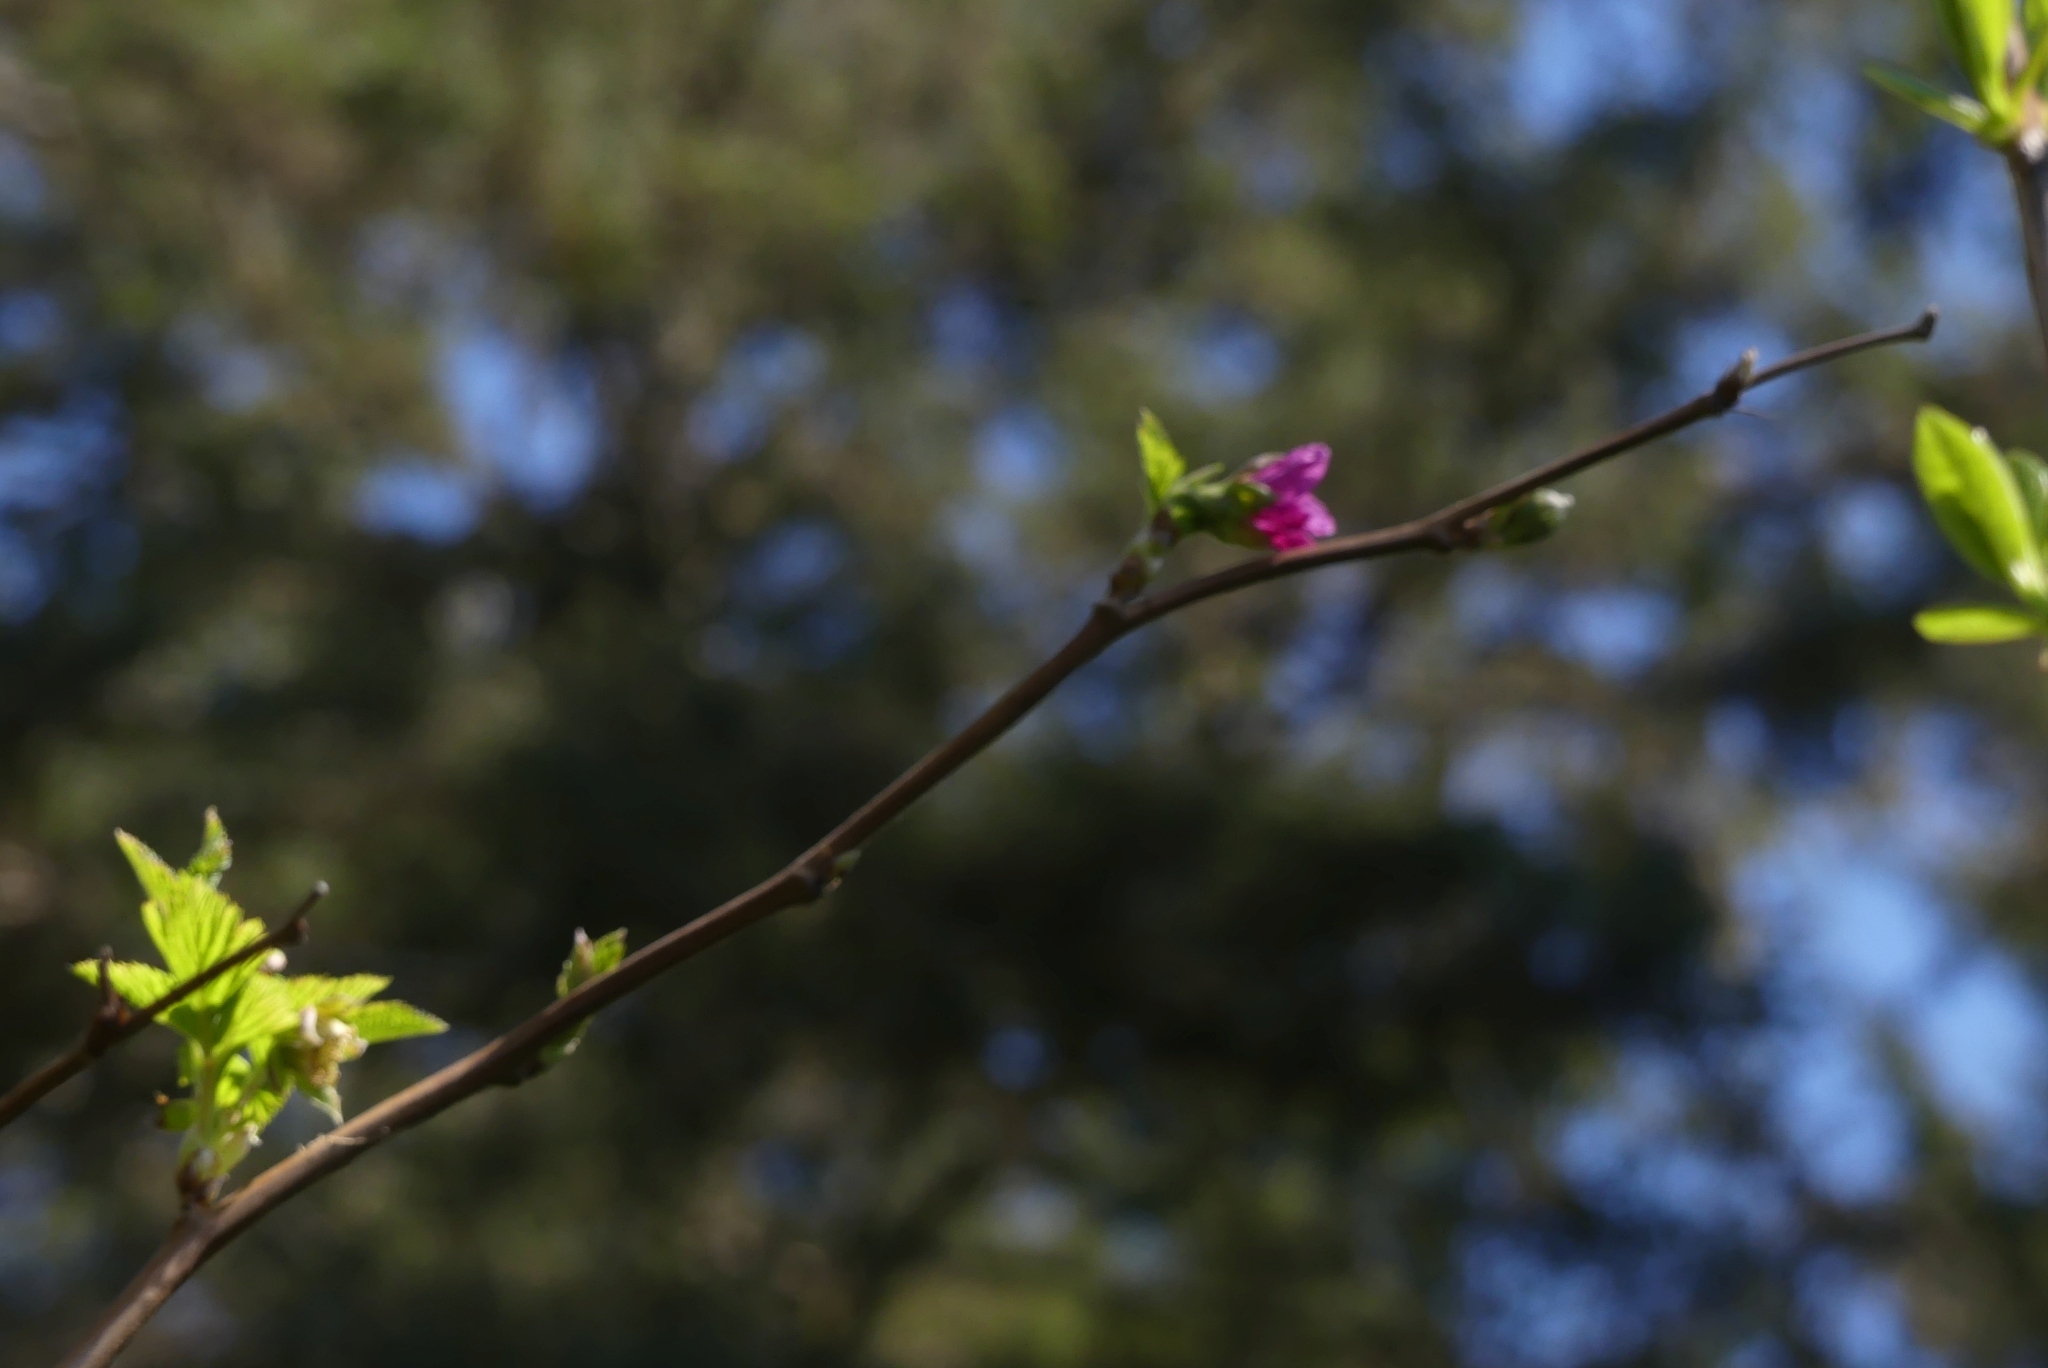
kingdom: Plantae
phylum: Tracheophyta
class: Magnoliopsida
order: Rosales
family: Rosaceae
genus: Rubus
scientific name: Rubus spectabilis
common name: Salmonberry
